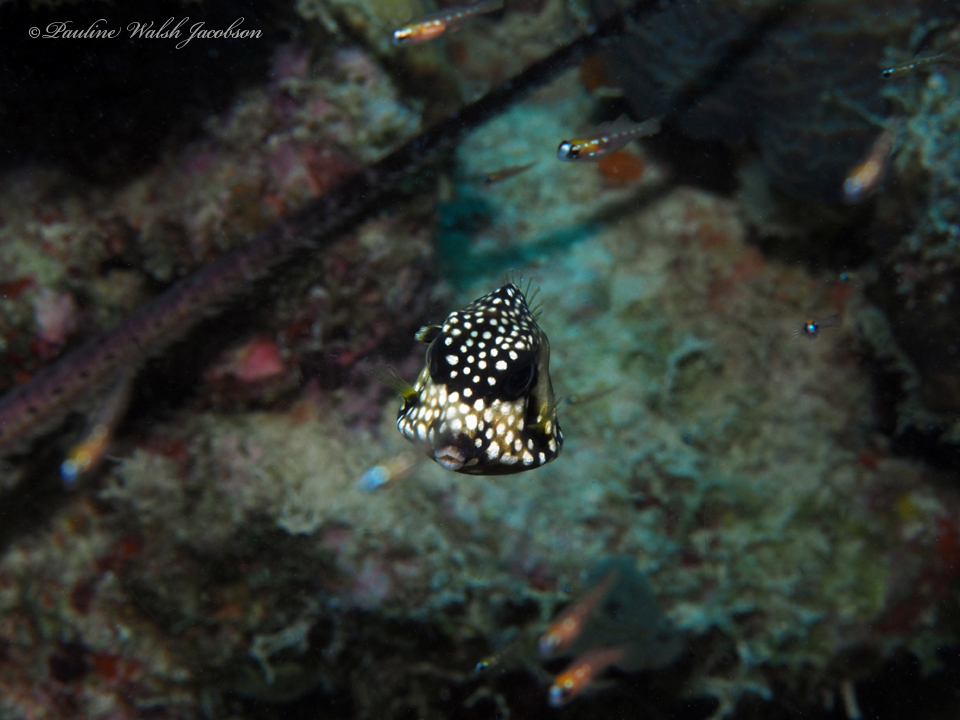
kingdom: Animalia
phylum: Chordata
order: Tetraodontiformes
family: Ostraciidae
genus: Lactophrys
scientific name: Lactophrys triqueter
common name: Smooth trunkfish
